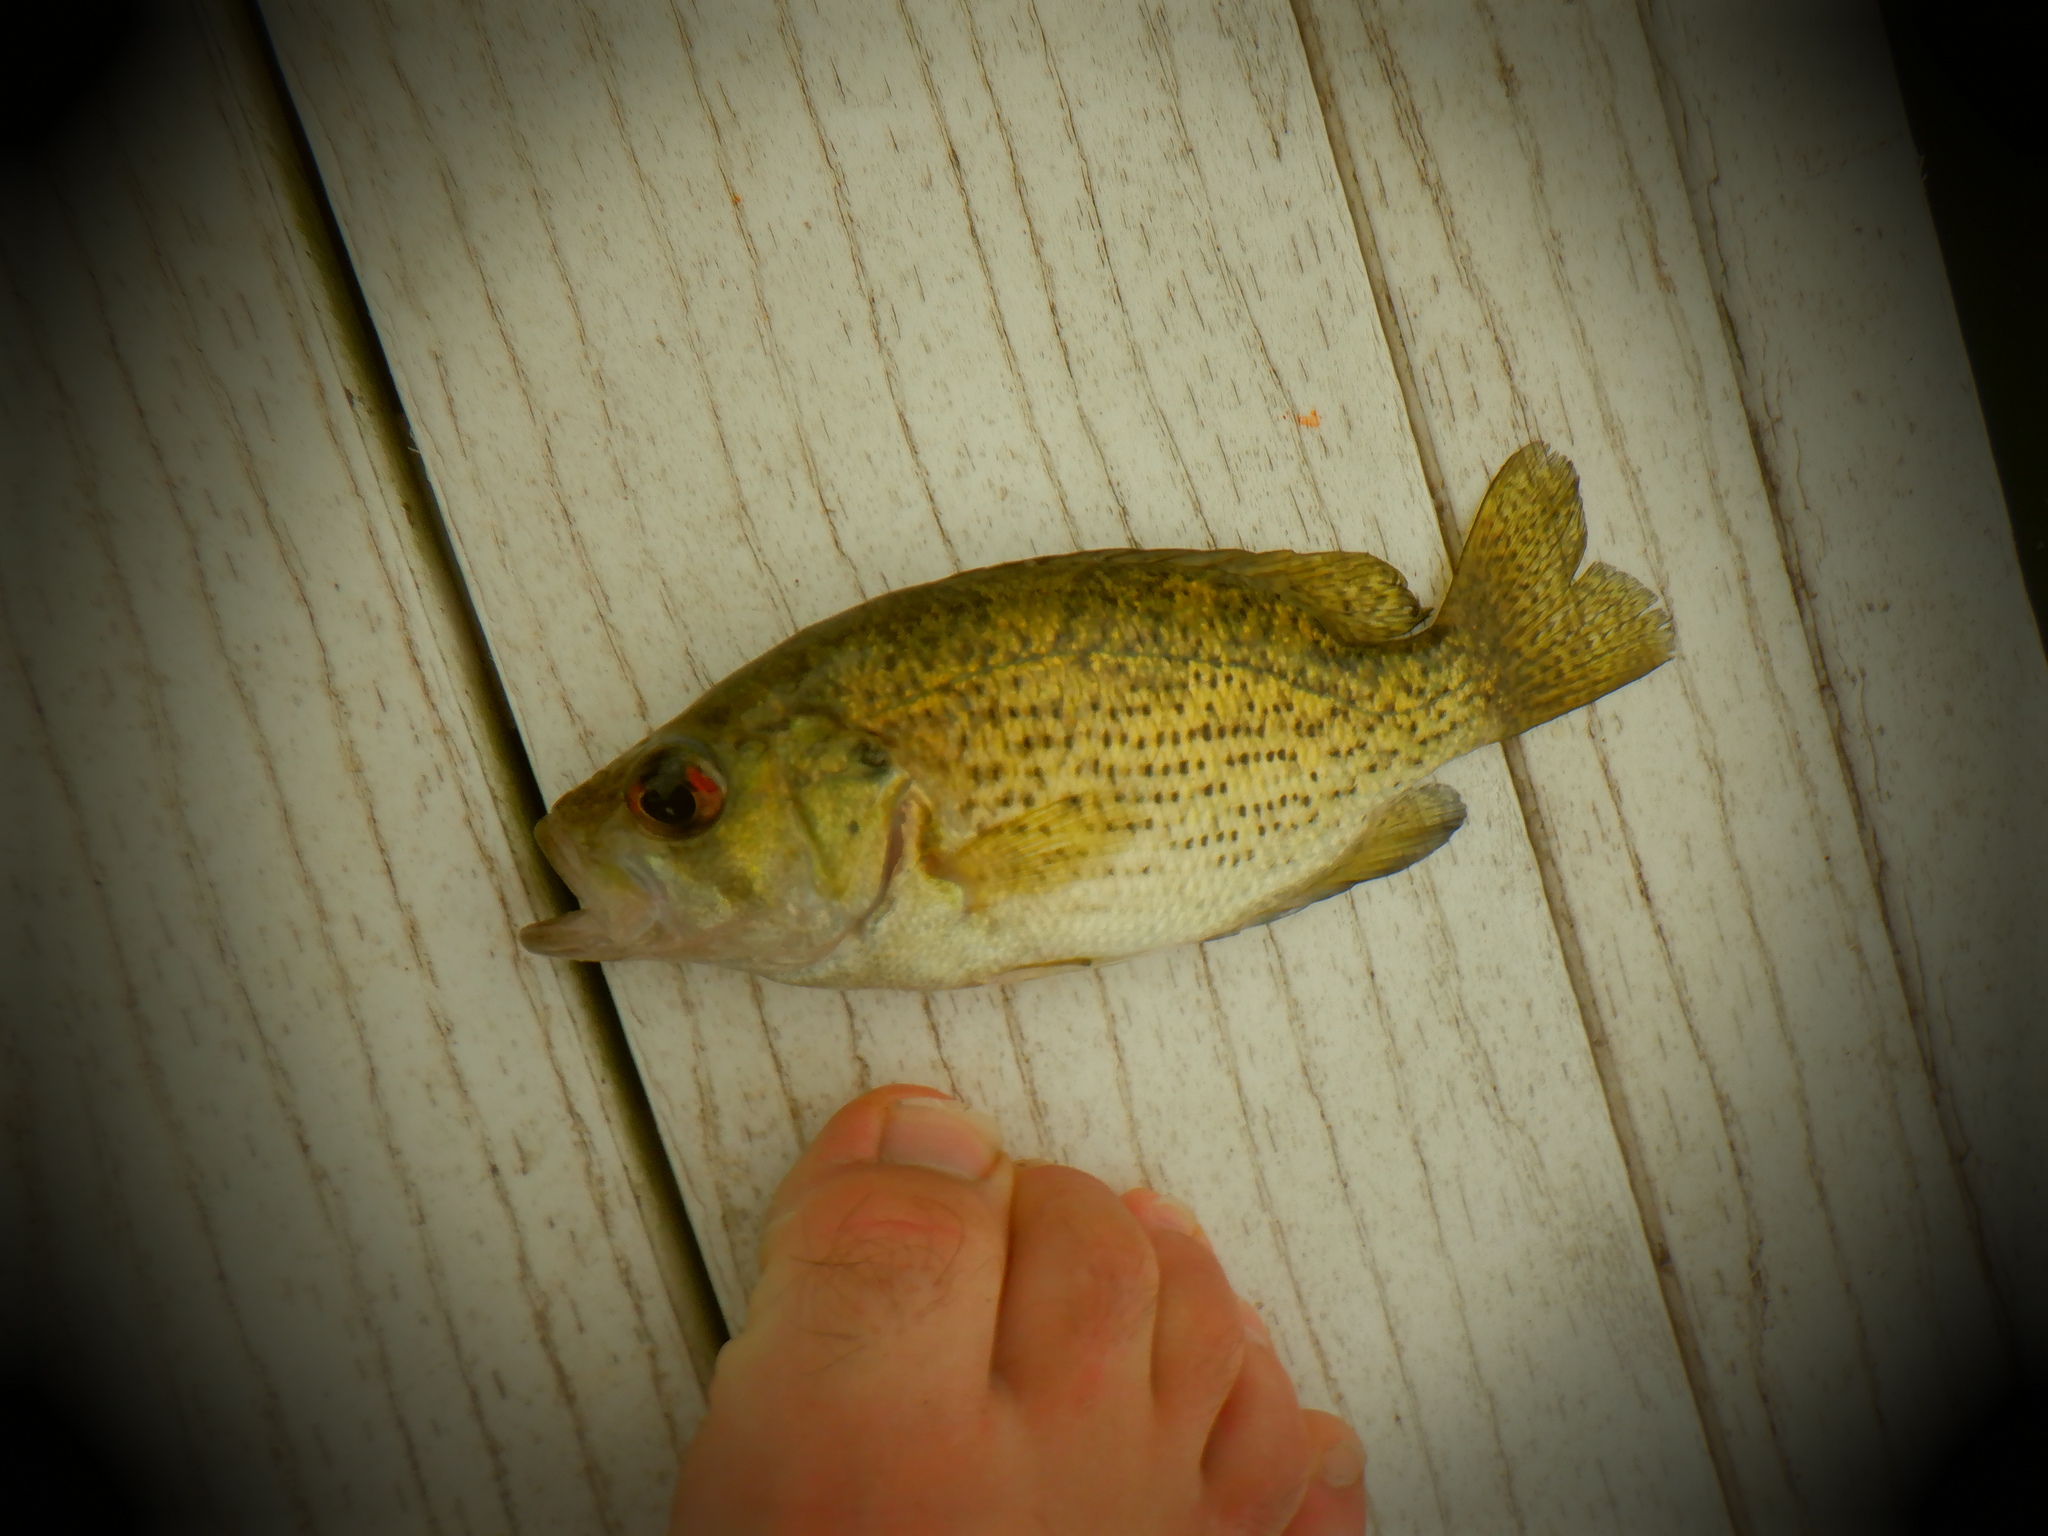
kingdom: Animalia
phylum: Chordata
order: Perciformes
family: Centrarchidae
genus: Ambloplites
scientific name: Ambloplites rupestris
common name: Rock bass
